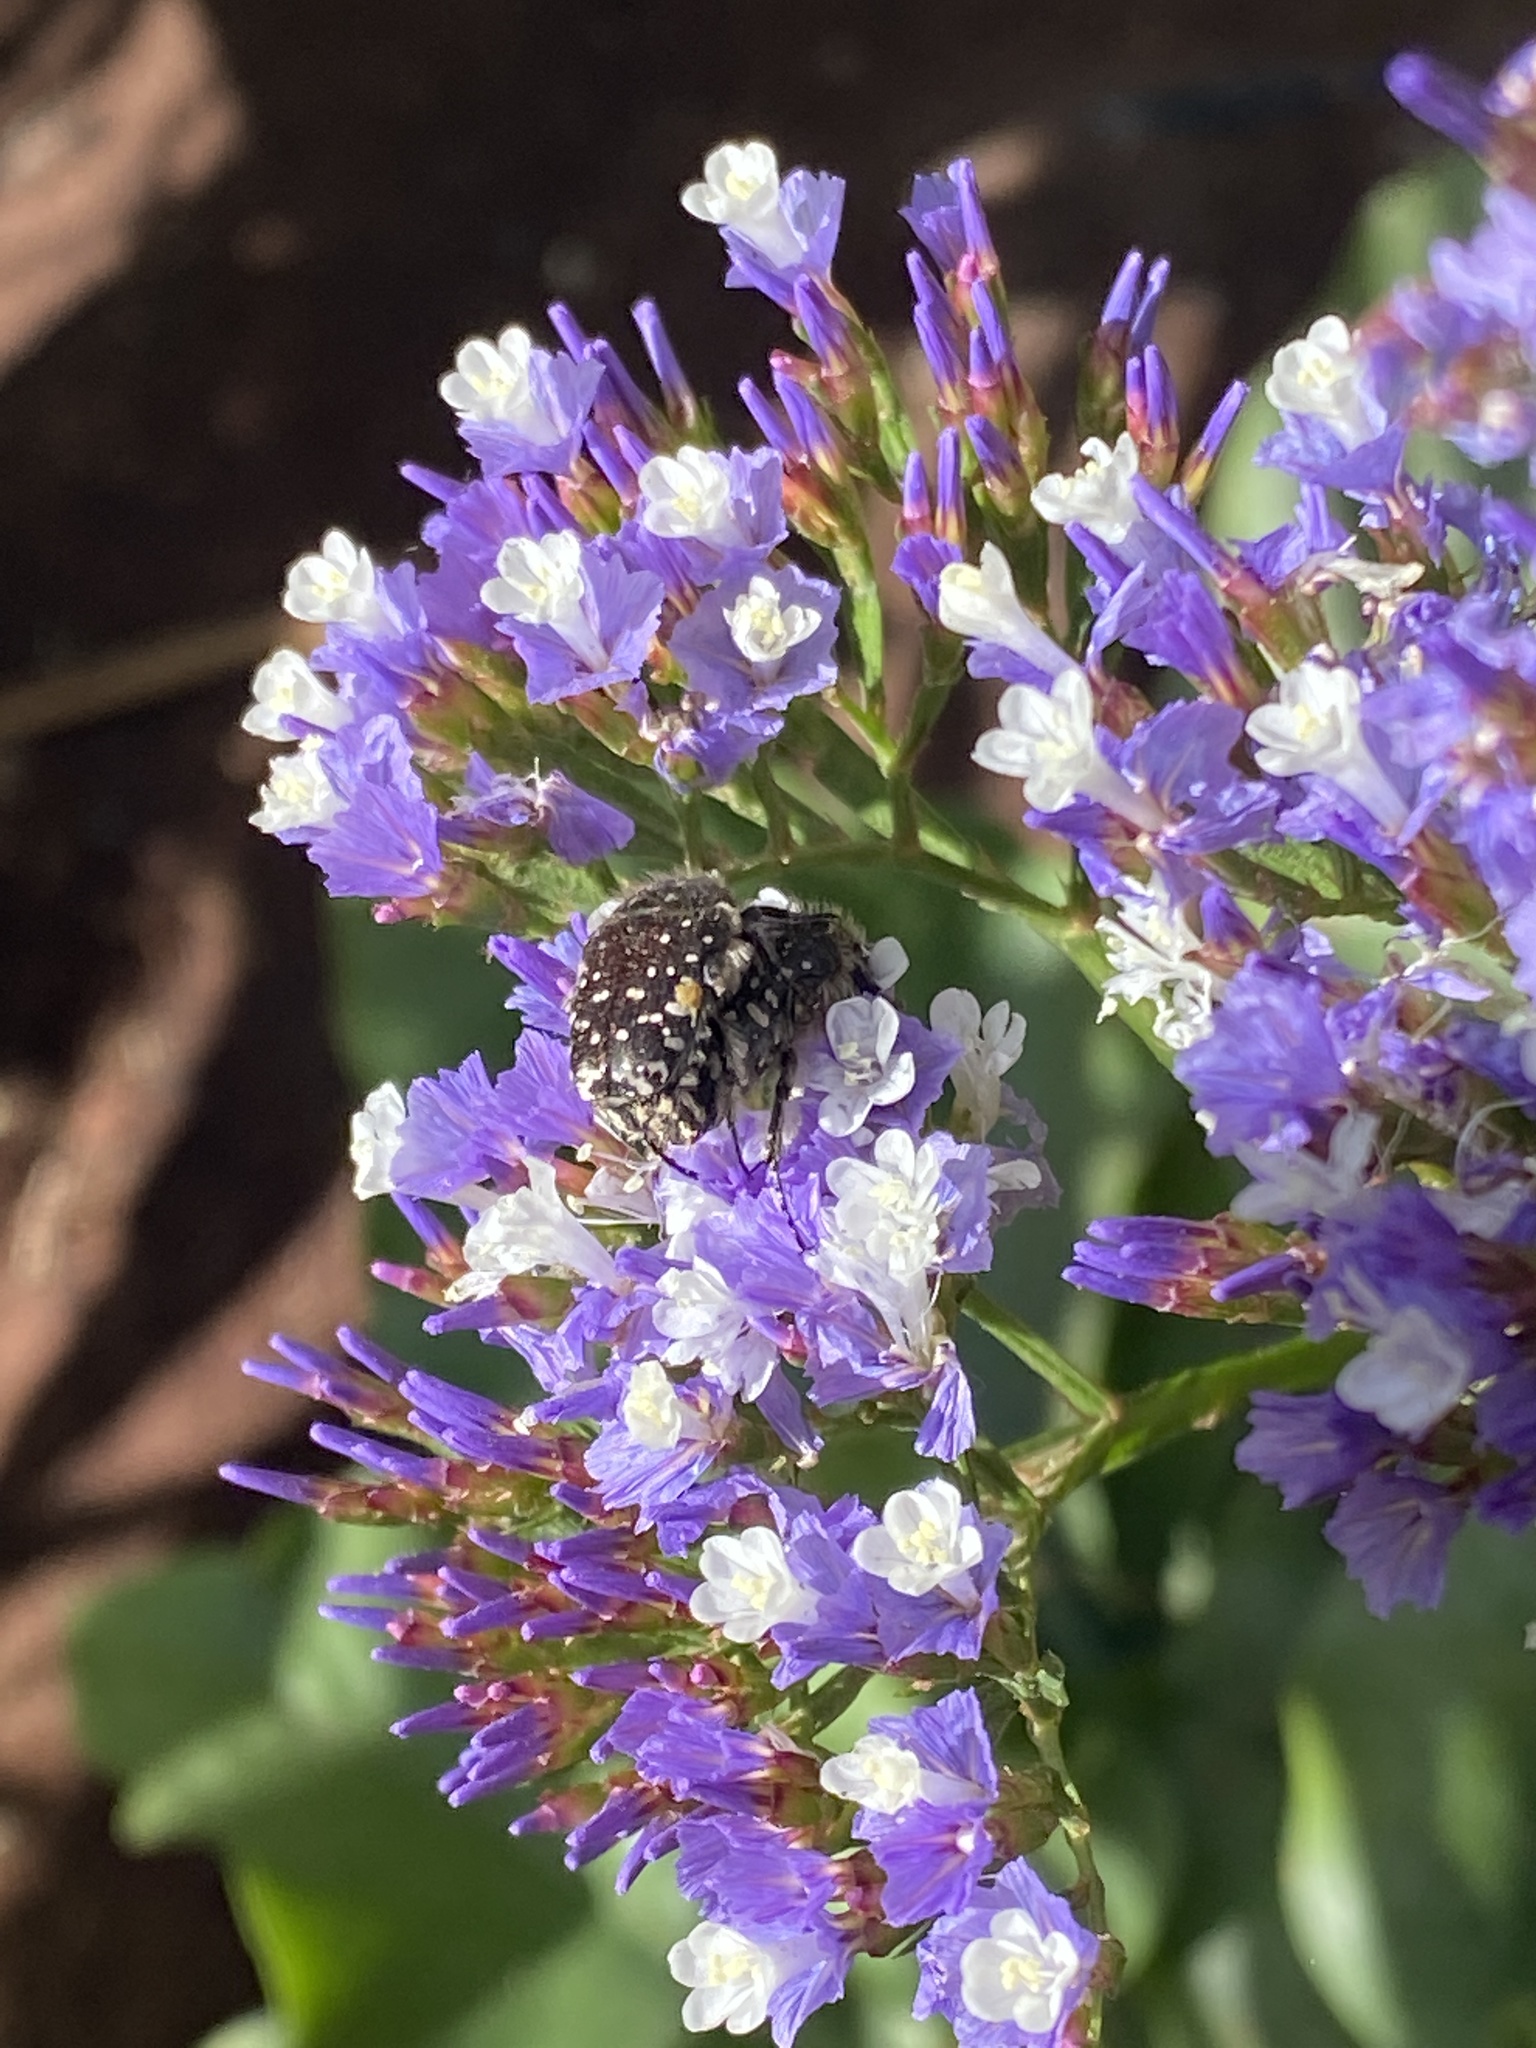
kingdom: Animalia
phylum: Arthropoda
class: Insecta
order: Coleoptera
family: Scarabaeidae
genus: Oxythyrea
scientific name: Oxythyrea funesta
